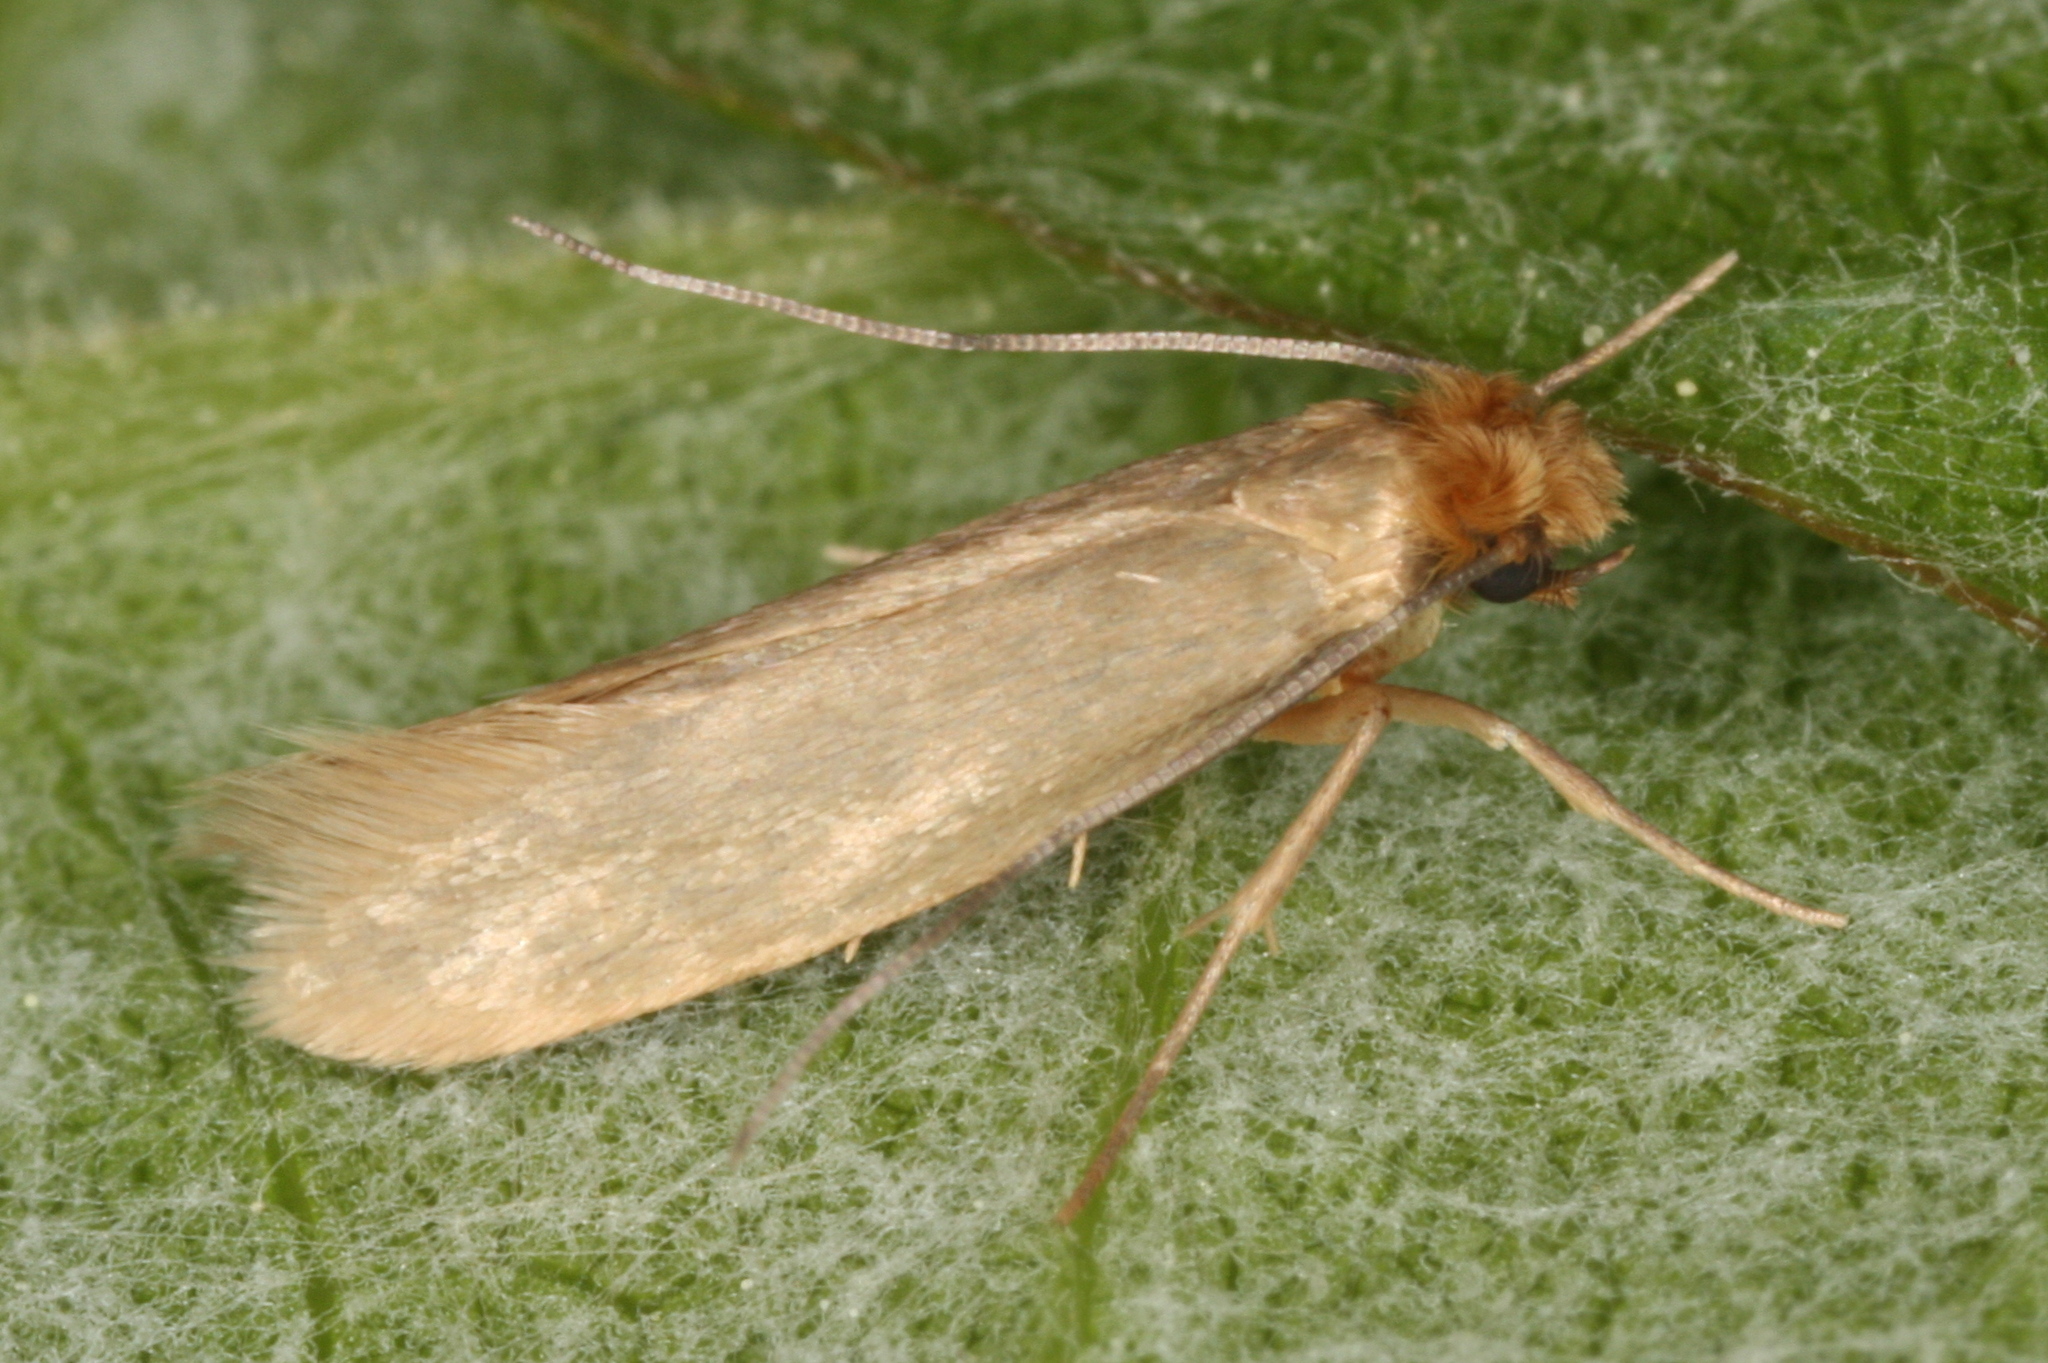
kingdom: Animalia
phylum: Arthropoda
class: Insecta
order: Lepidoptera
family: Tineidae
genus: Tineola
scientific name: Tineola bisselliella
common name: Webbing clothes moth
